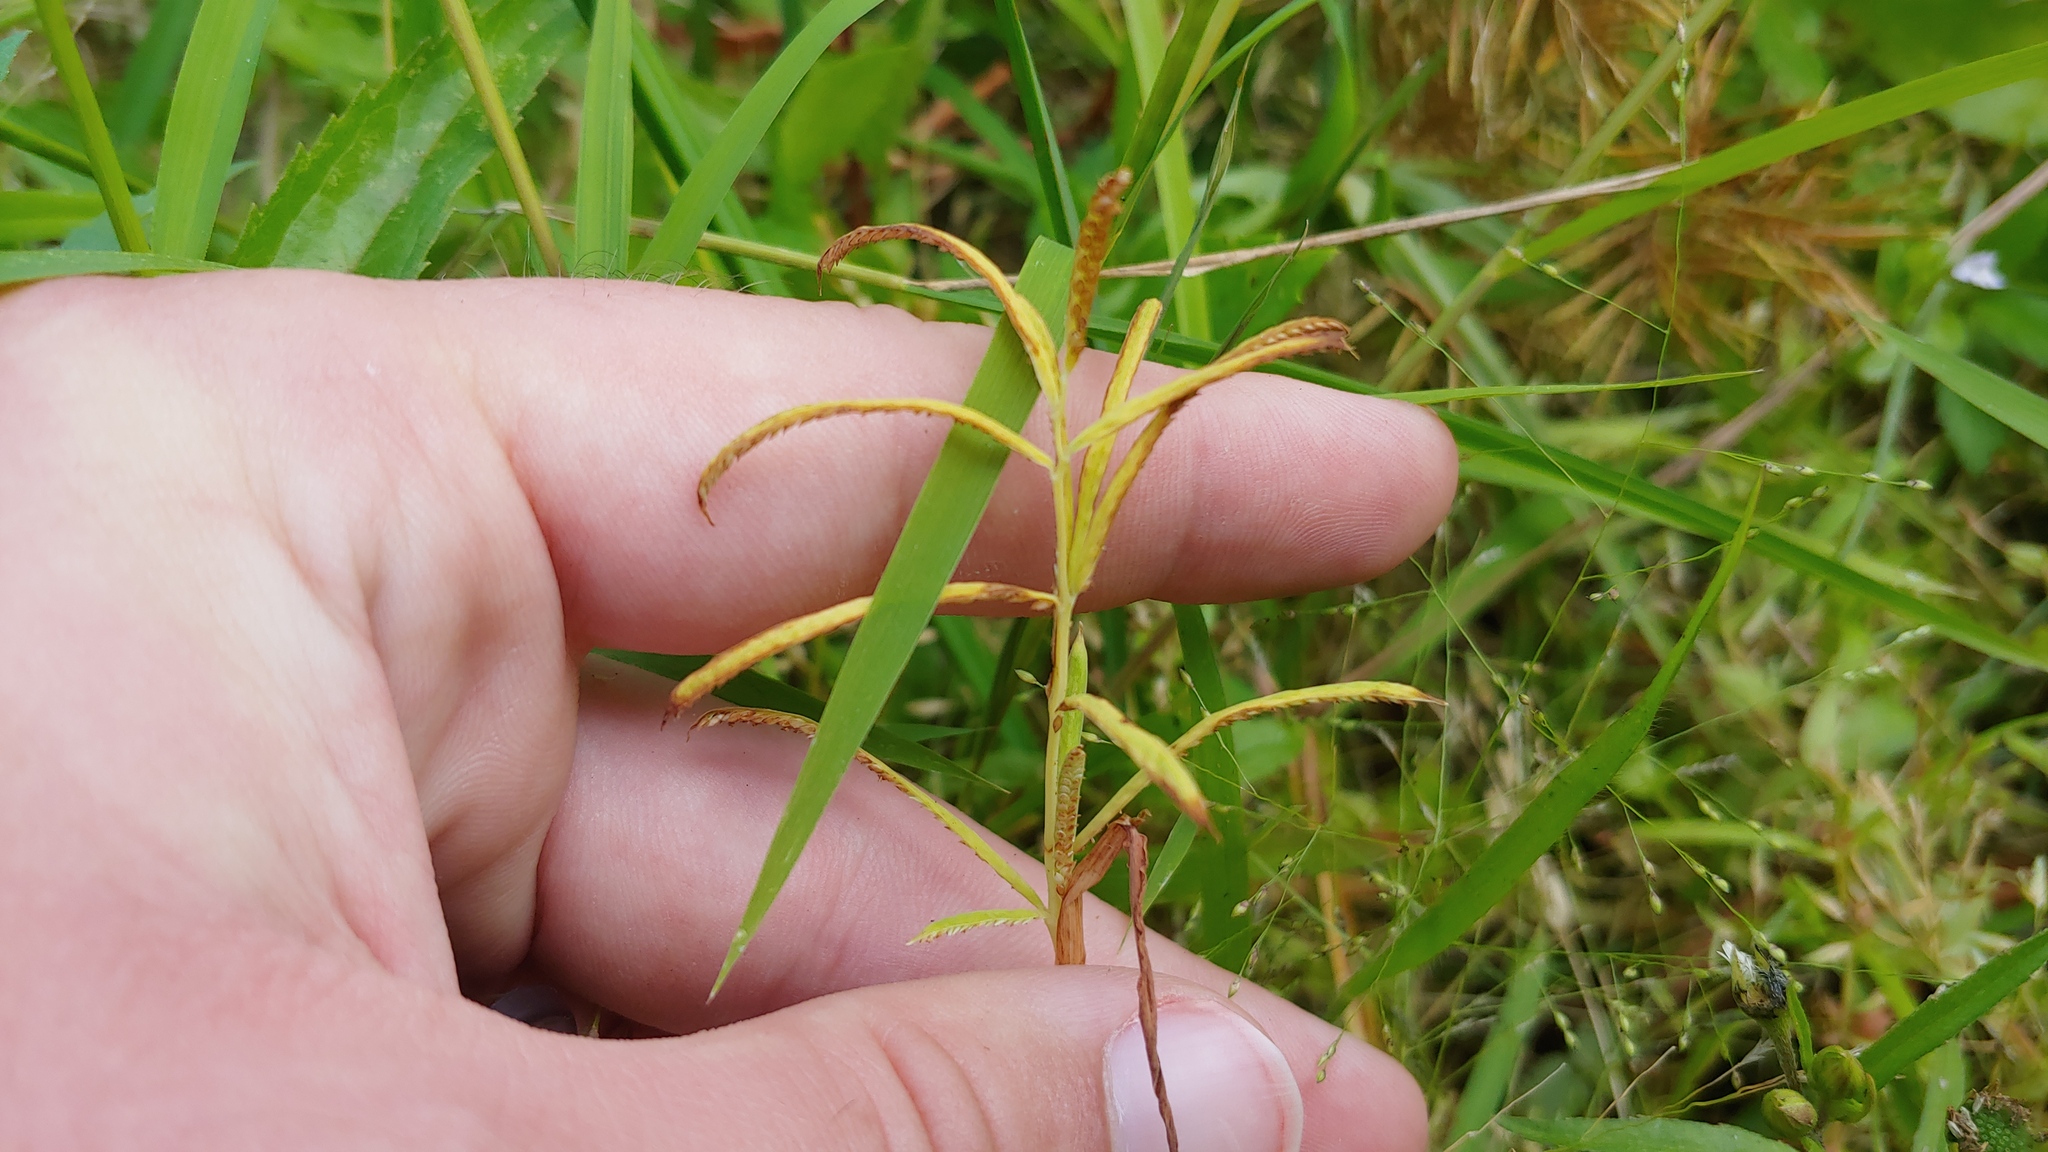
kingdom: Plantae
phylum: Tracheophyta
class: Liliopsida
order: Poales
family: Poaceae
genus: Paspalum
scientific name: Paspalum repens
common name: Water paspalum
